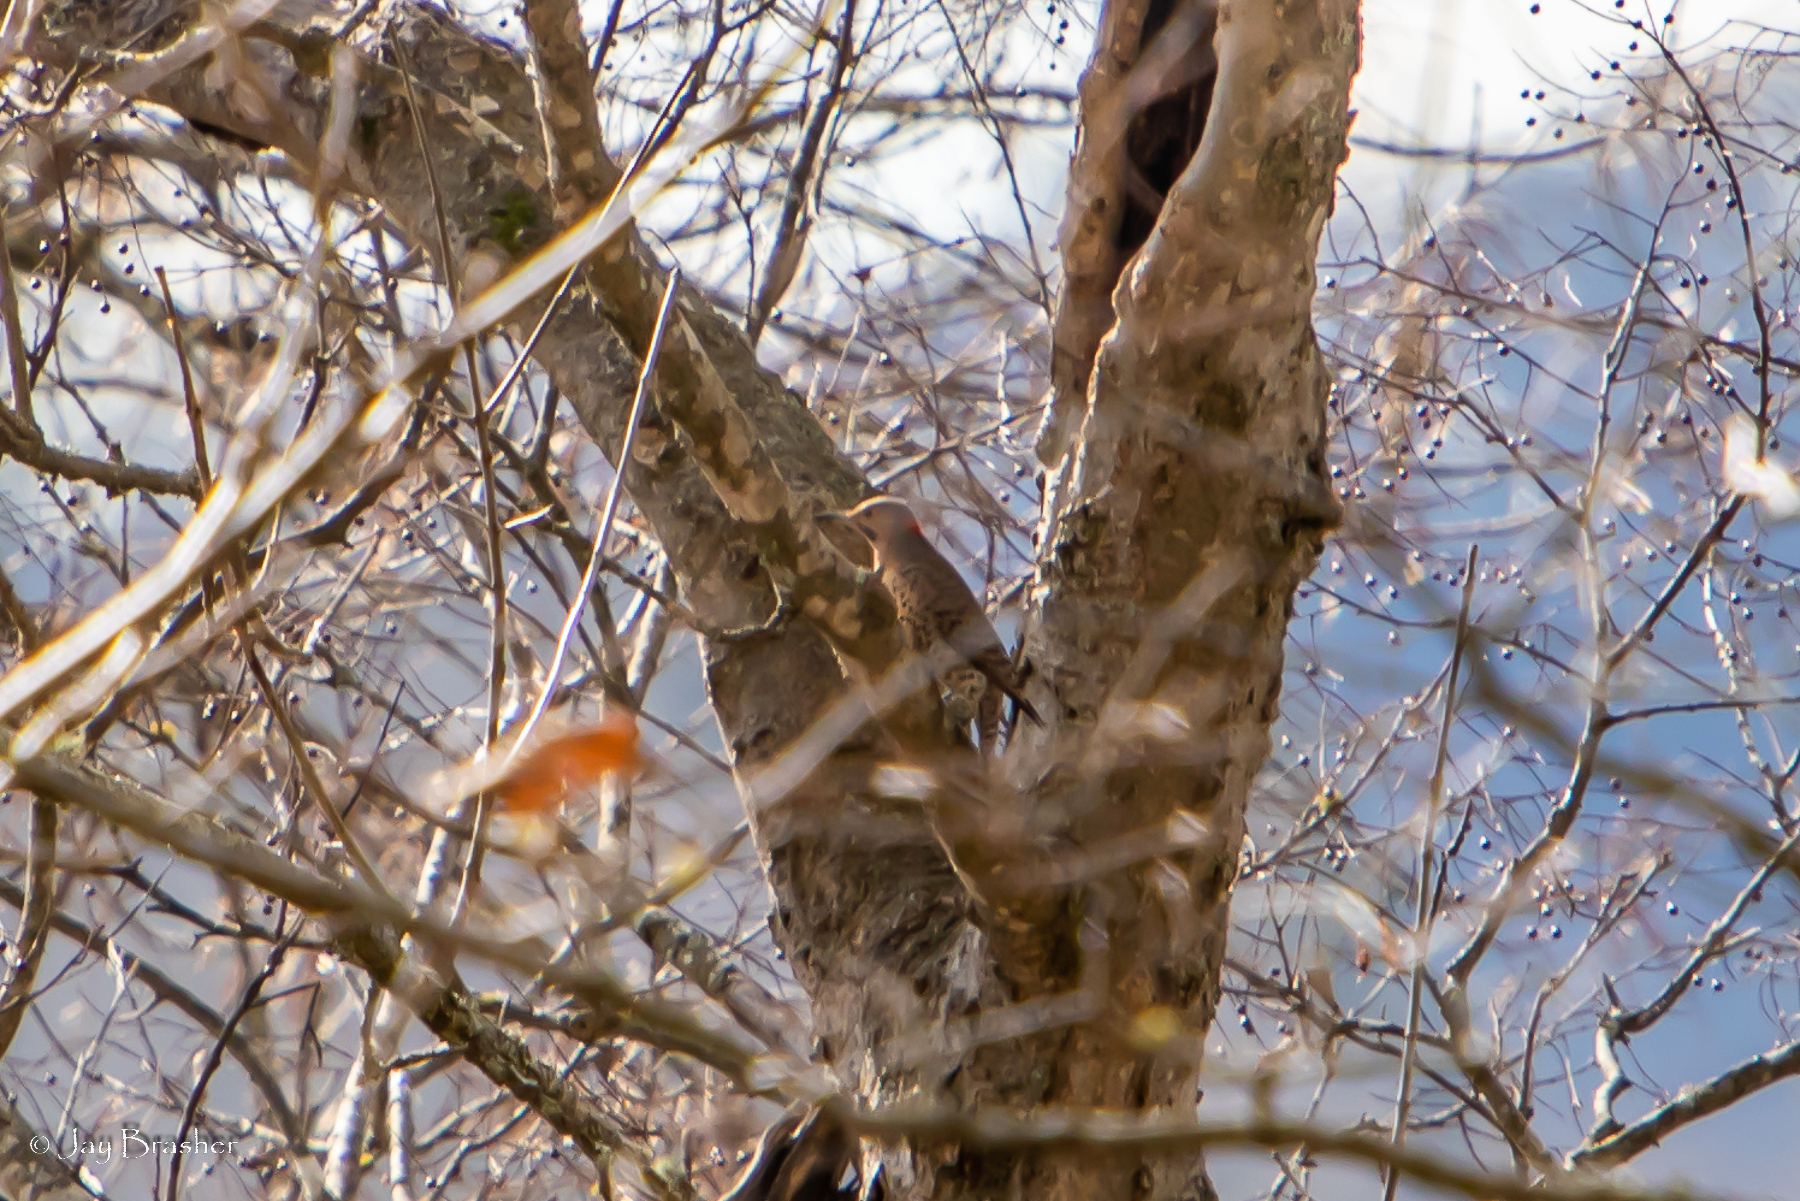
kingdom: Animalia
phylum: Chordata
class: Aves
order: Piciformes
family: Picidae
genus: Colaptes
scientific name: Colaptes auratus
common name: Northern flicker
